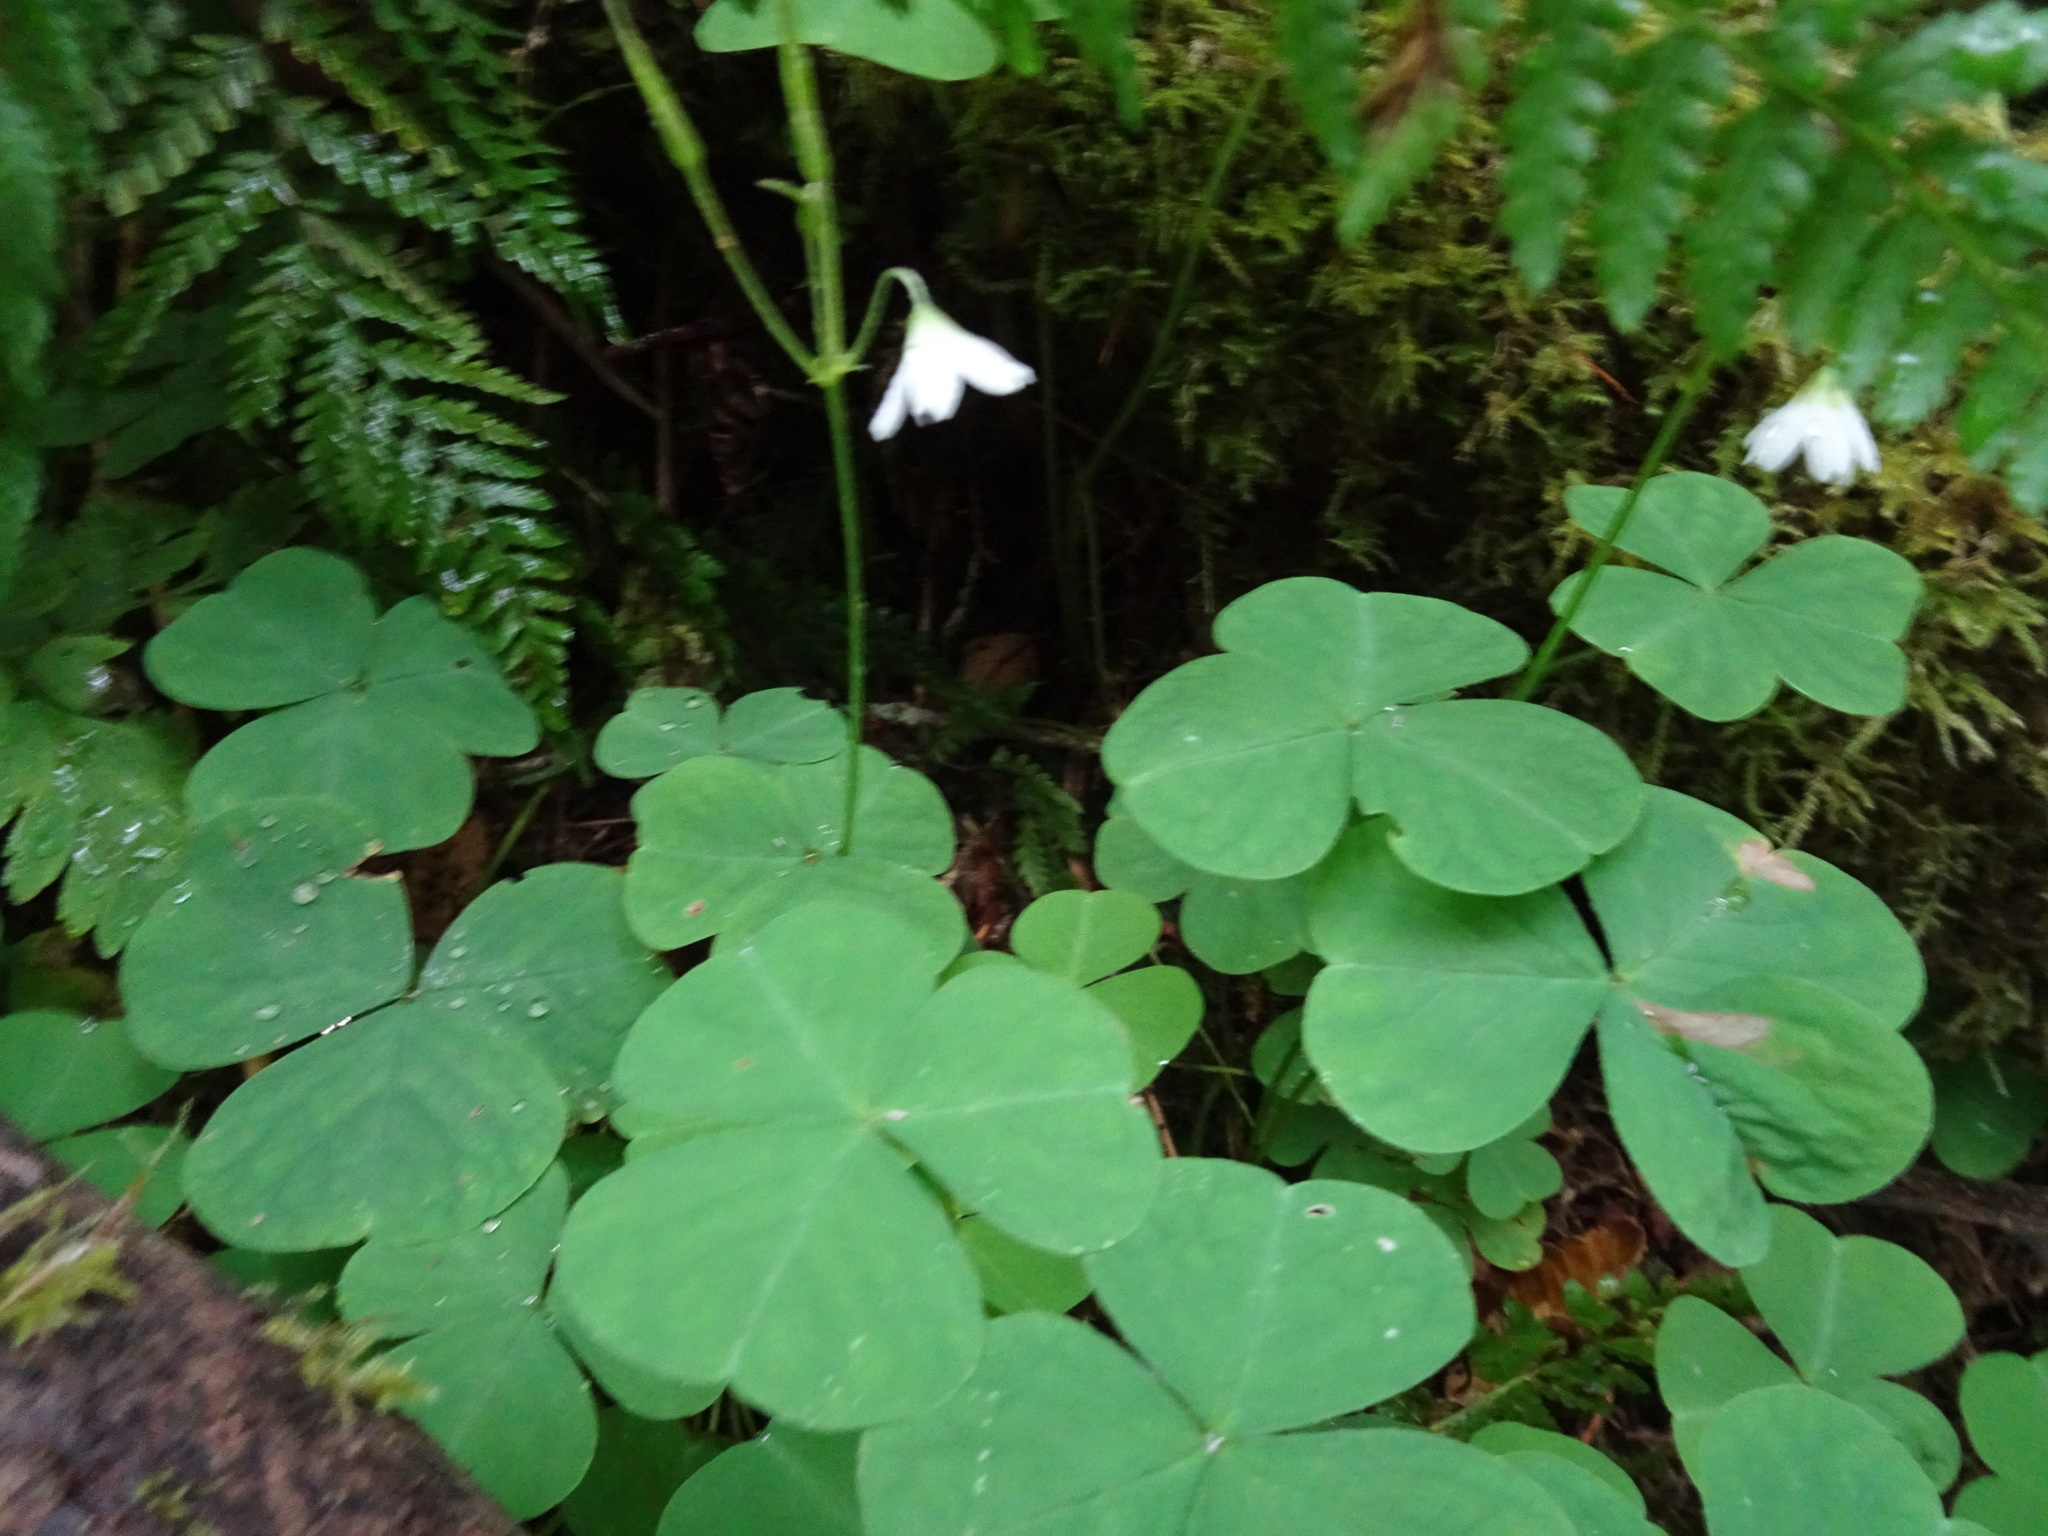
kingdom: Plantae
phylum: Tracheophyta
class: Magnoliopsida
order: Oxalidales
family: Oxalidaceae
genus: Oxalis
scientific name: Oxalis trilliifolia
